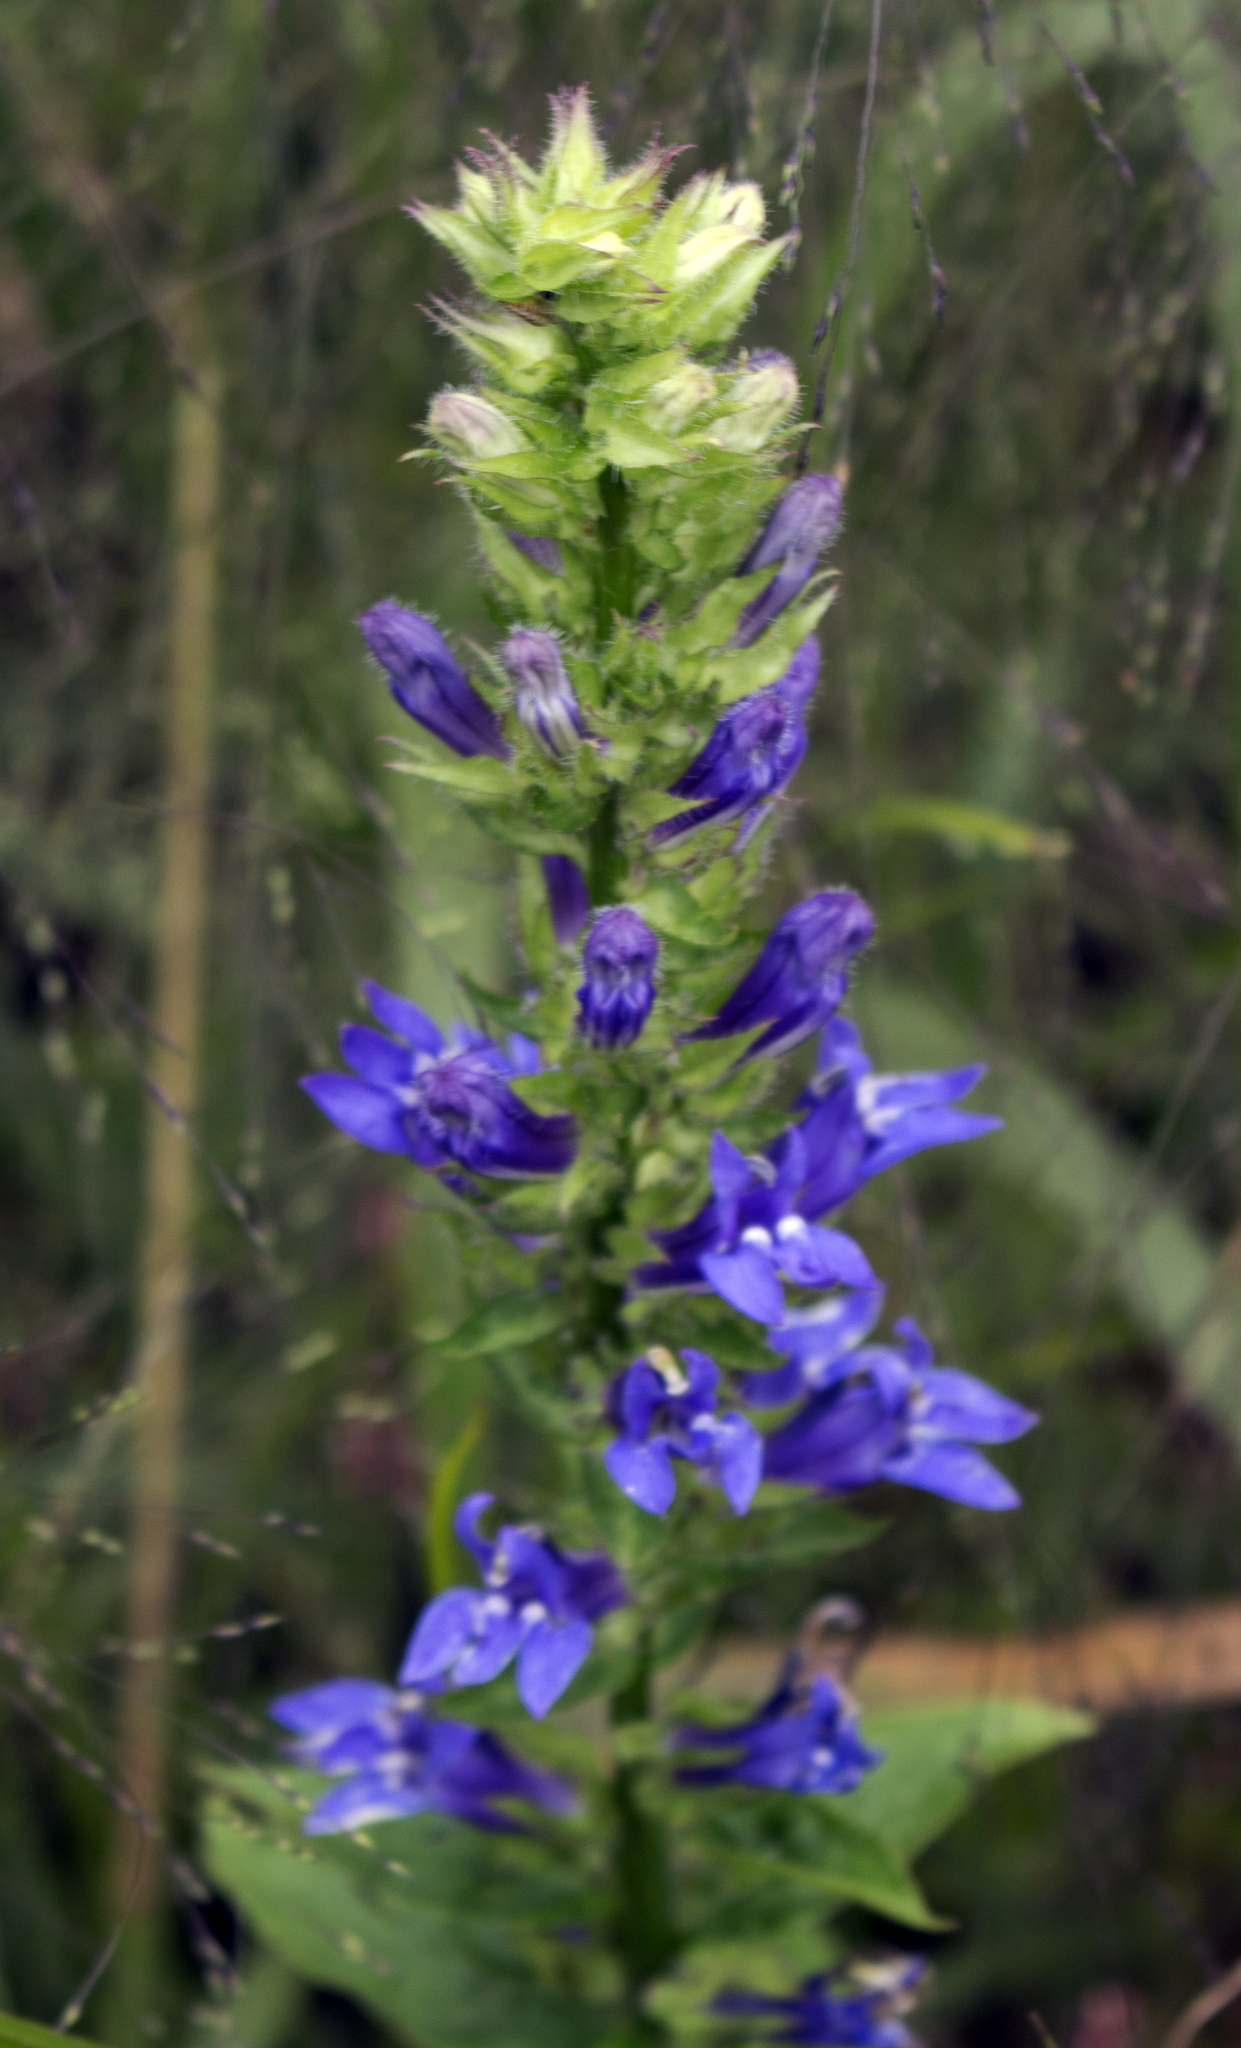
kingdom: Plantae
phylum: Tracheophyta
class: Magnoliopsida
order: Asterales
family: Campanulaceae
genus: Lobelia
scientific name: Lobelia siphilitica
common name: Great lobelia
